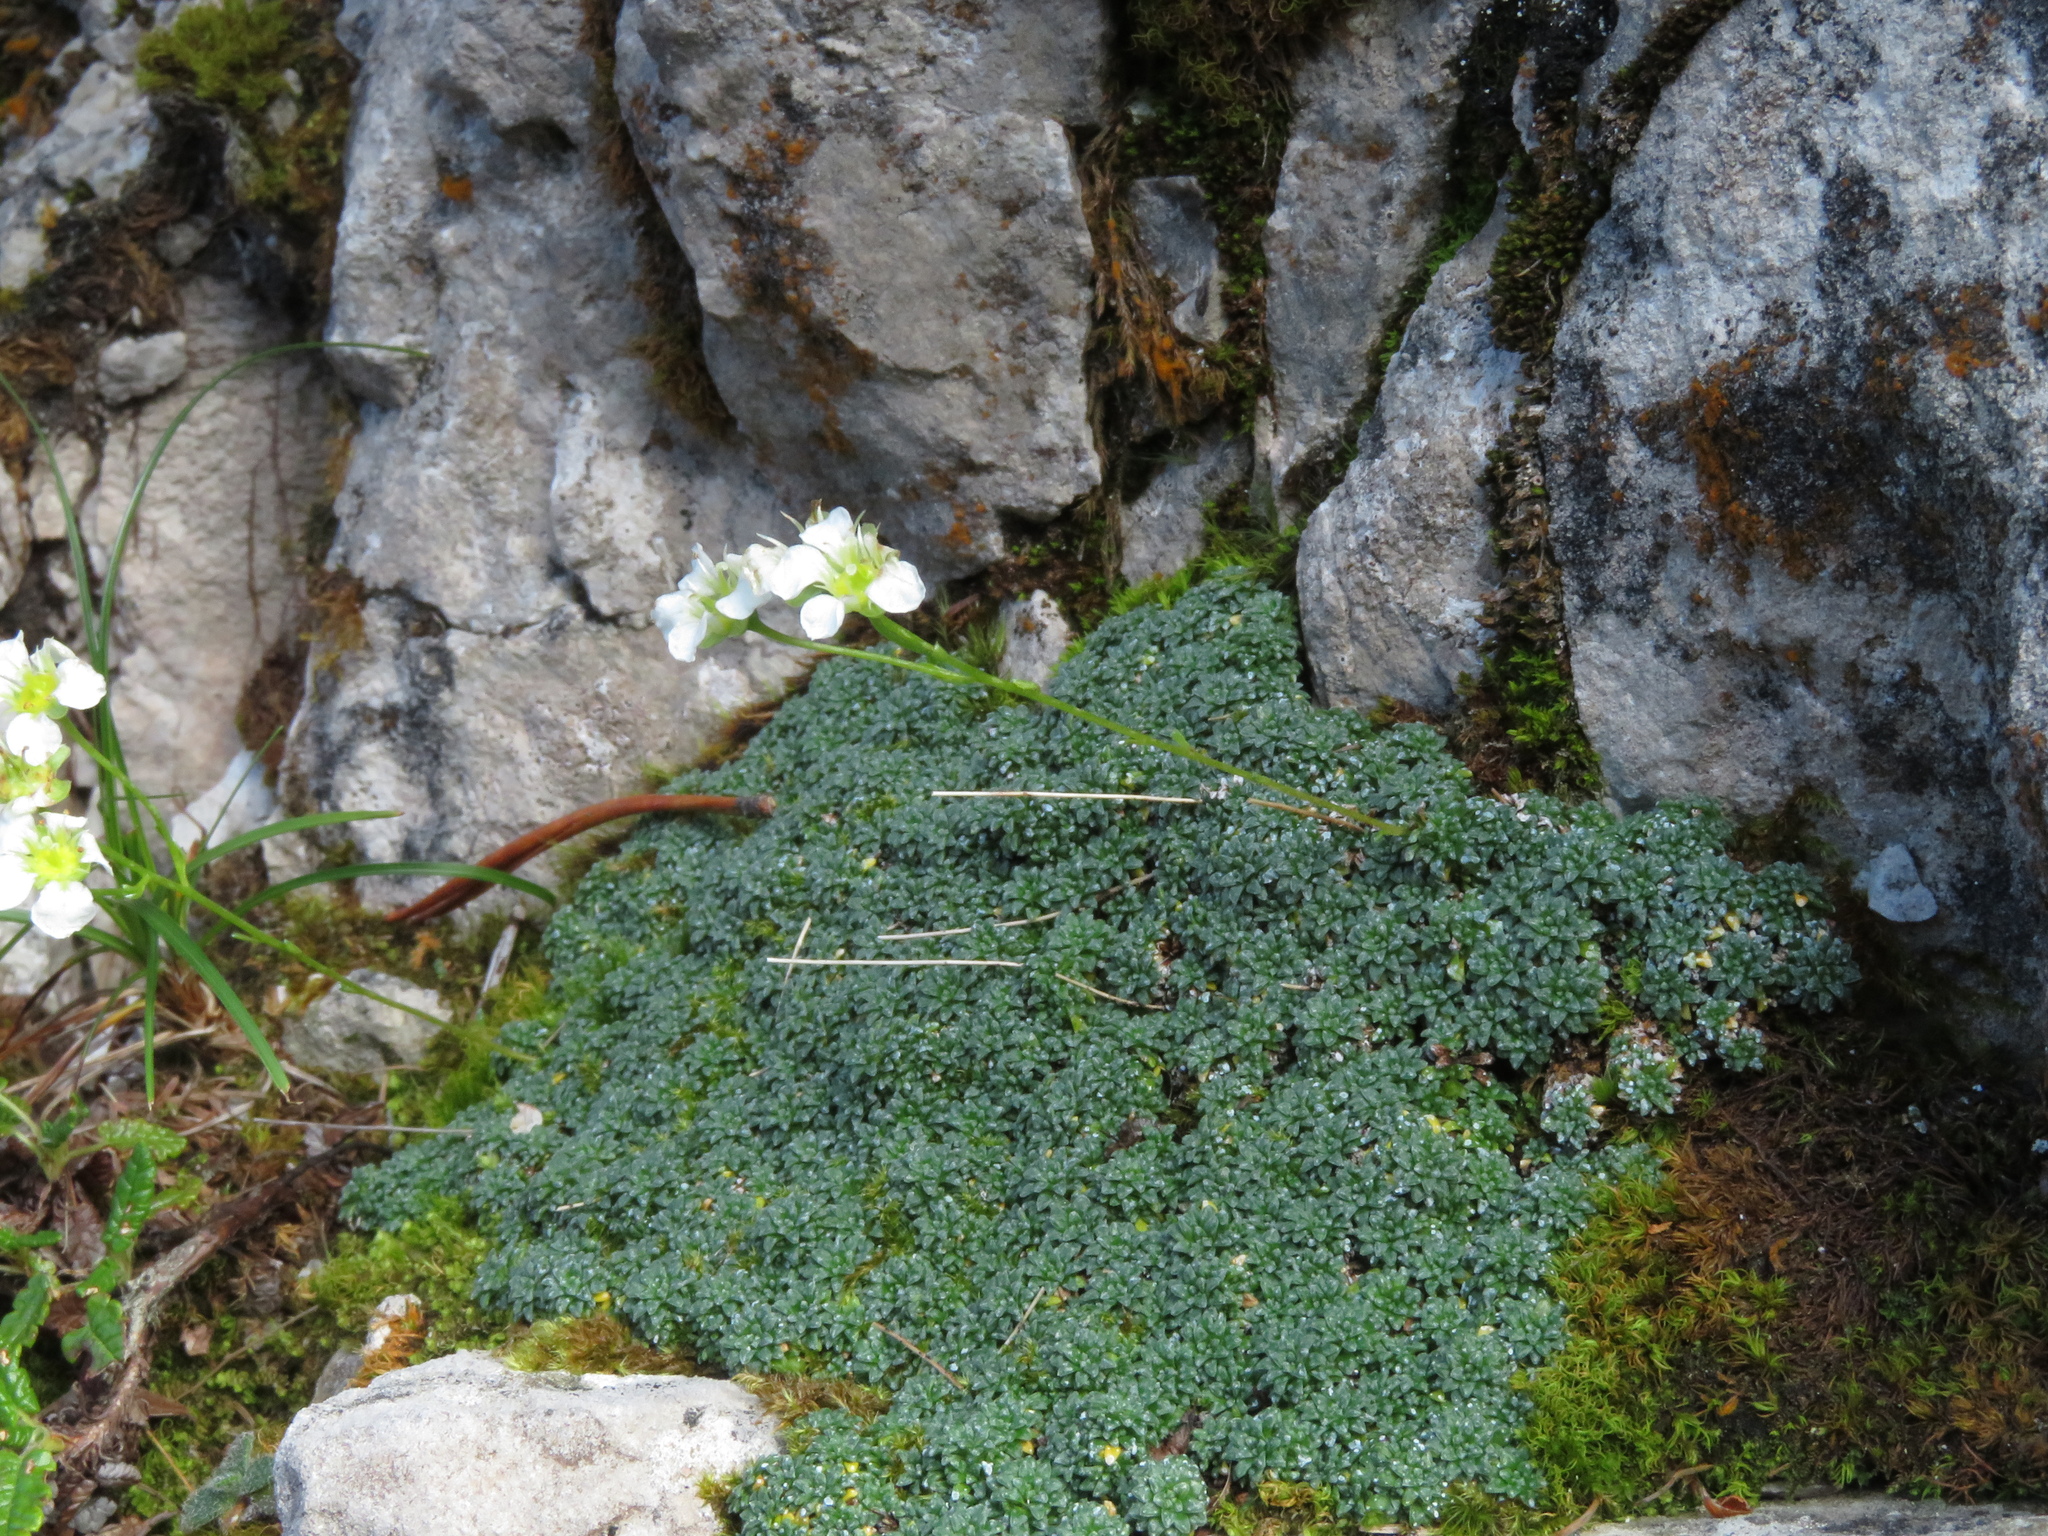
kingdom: Plantae
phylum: Tracheophyta
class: Magnoliopsida
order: Saxifragales
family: Saxifragaceae
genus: Saxifraga
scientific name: Saxifraga squarrosa
